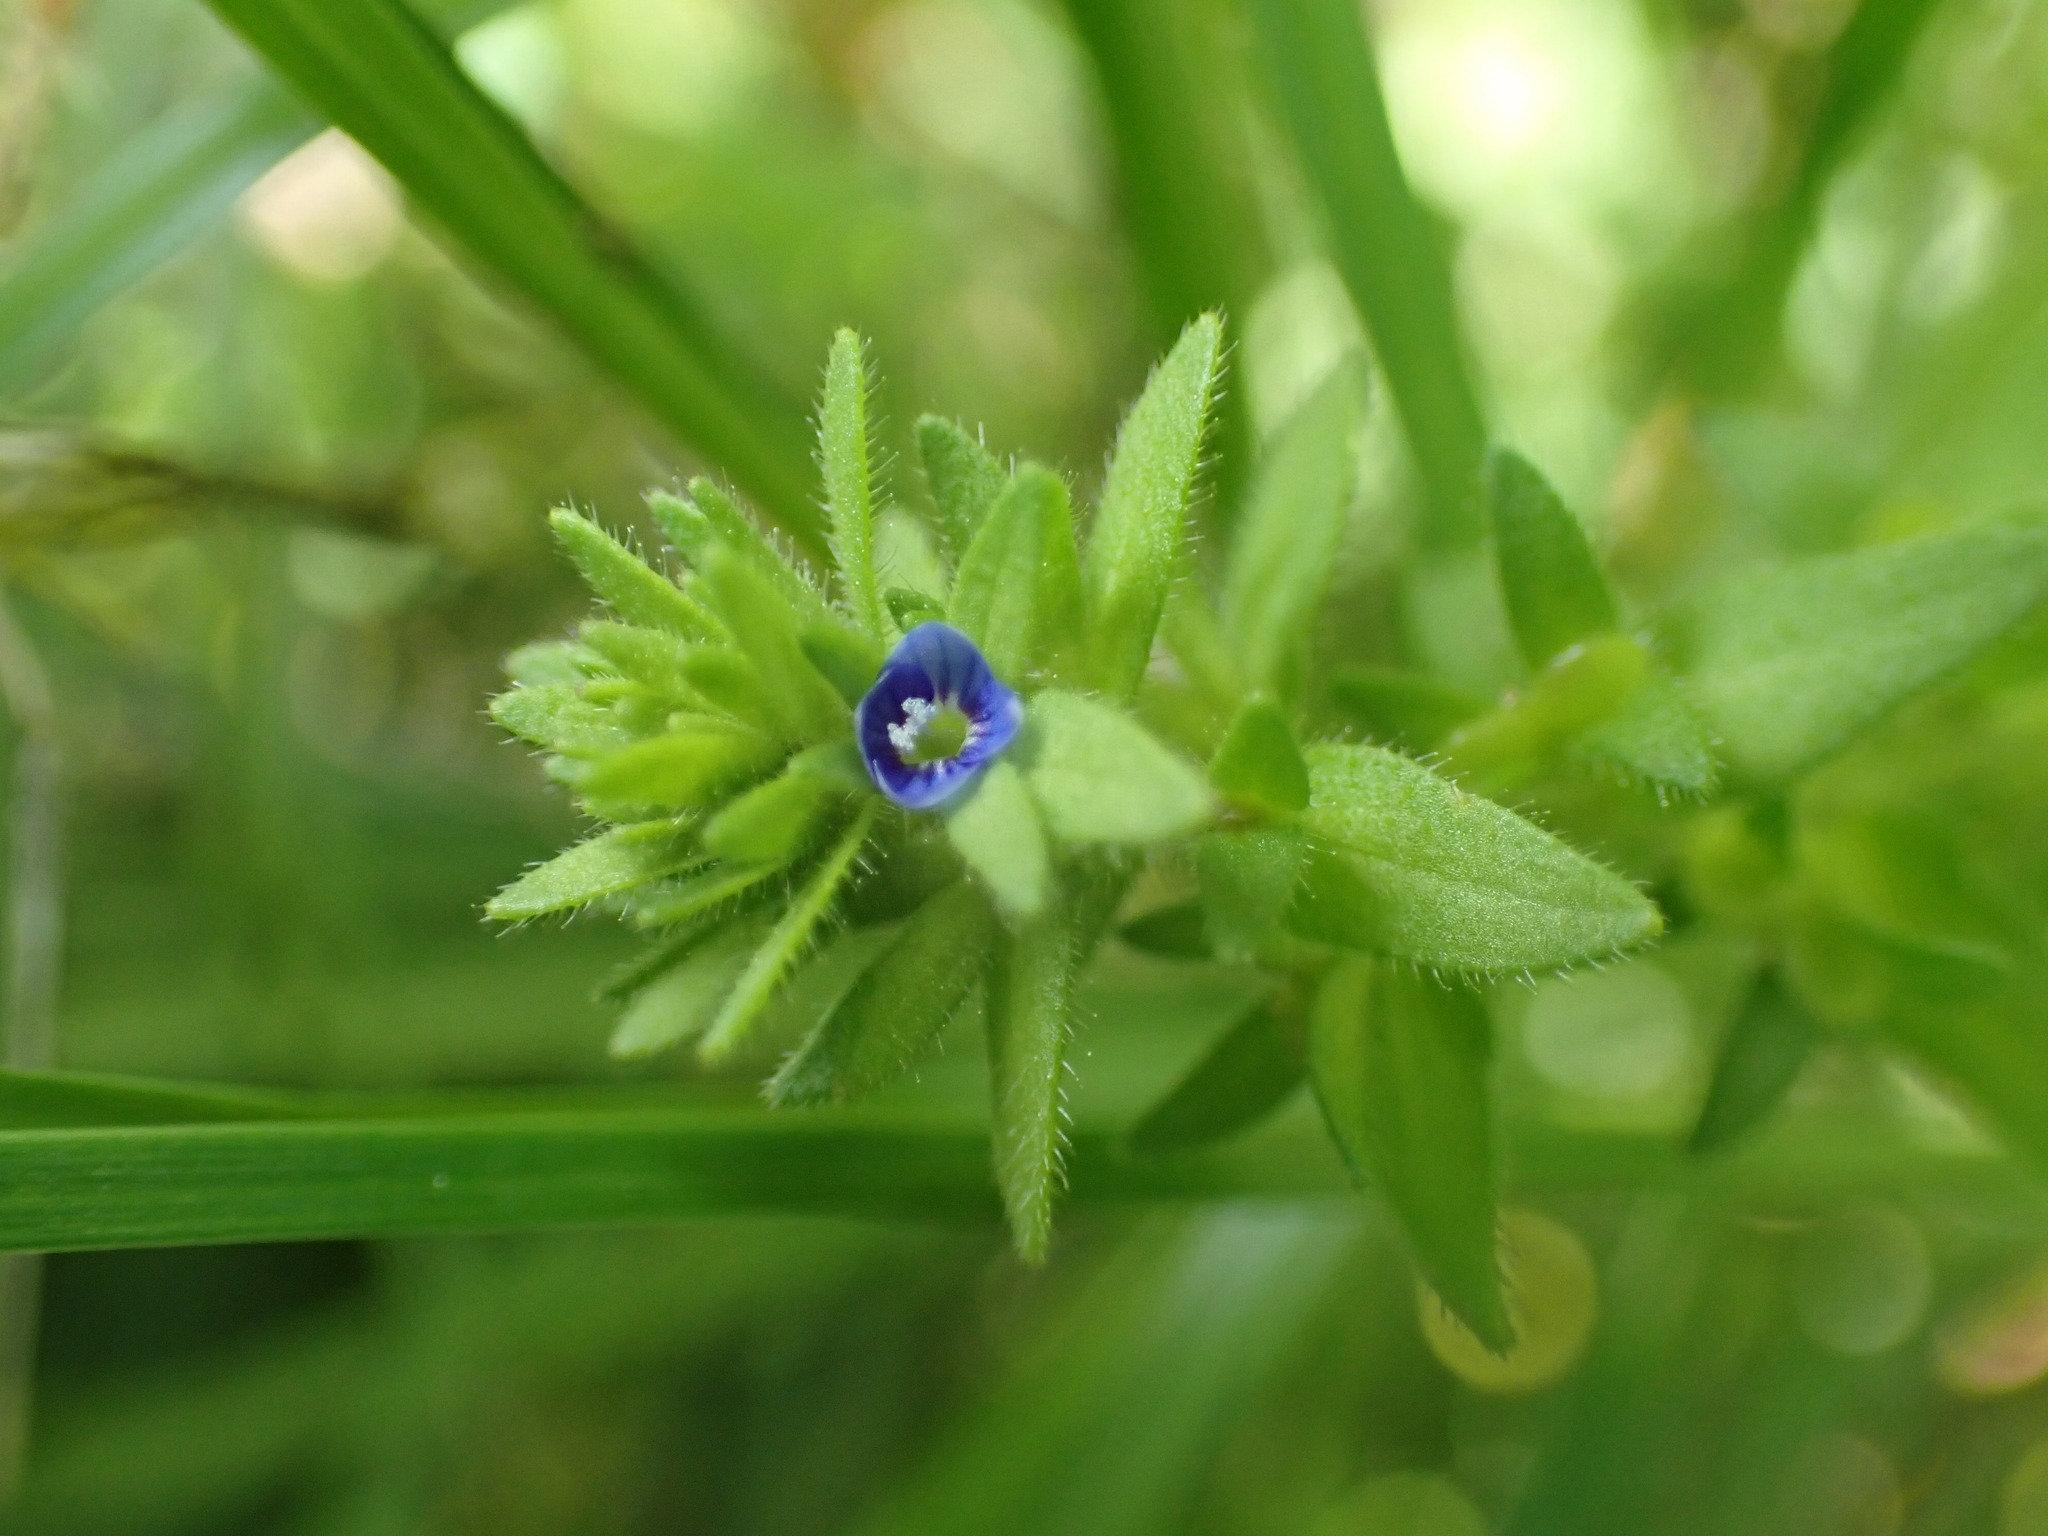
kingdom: Plantae
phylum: Tracheophyta
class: Magnoliopsida
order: Lamiales
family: Plantaginaceae
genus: Veronica
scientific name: Veronica arvensis
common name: Corn speedwell
